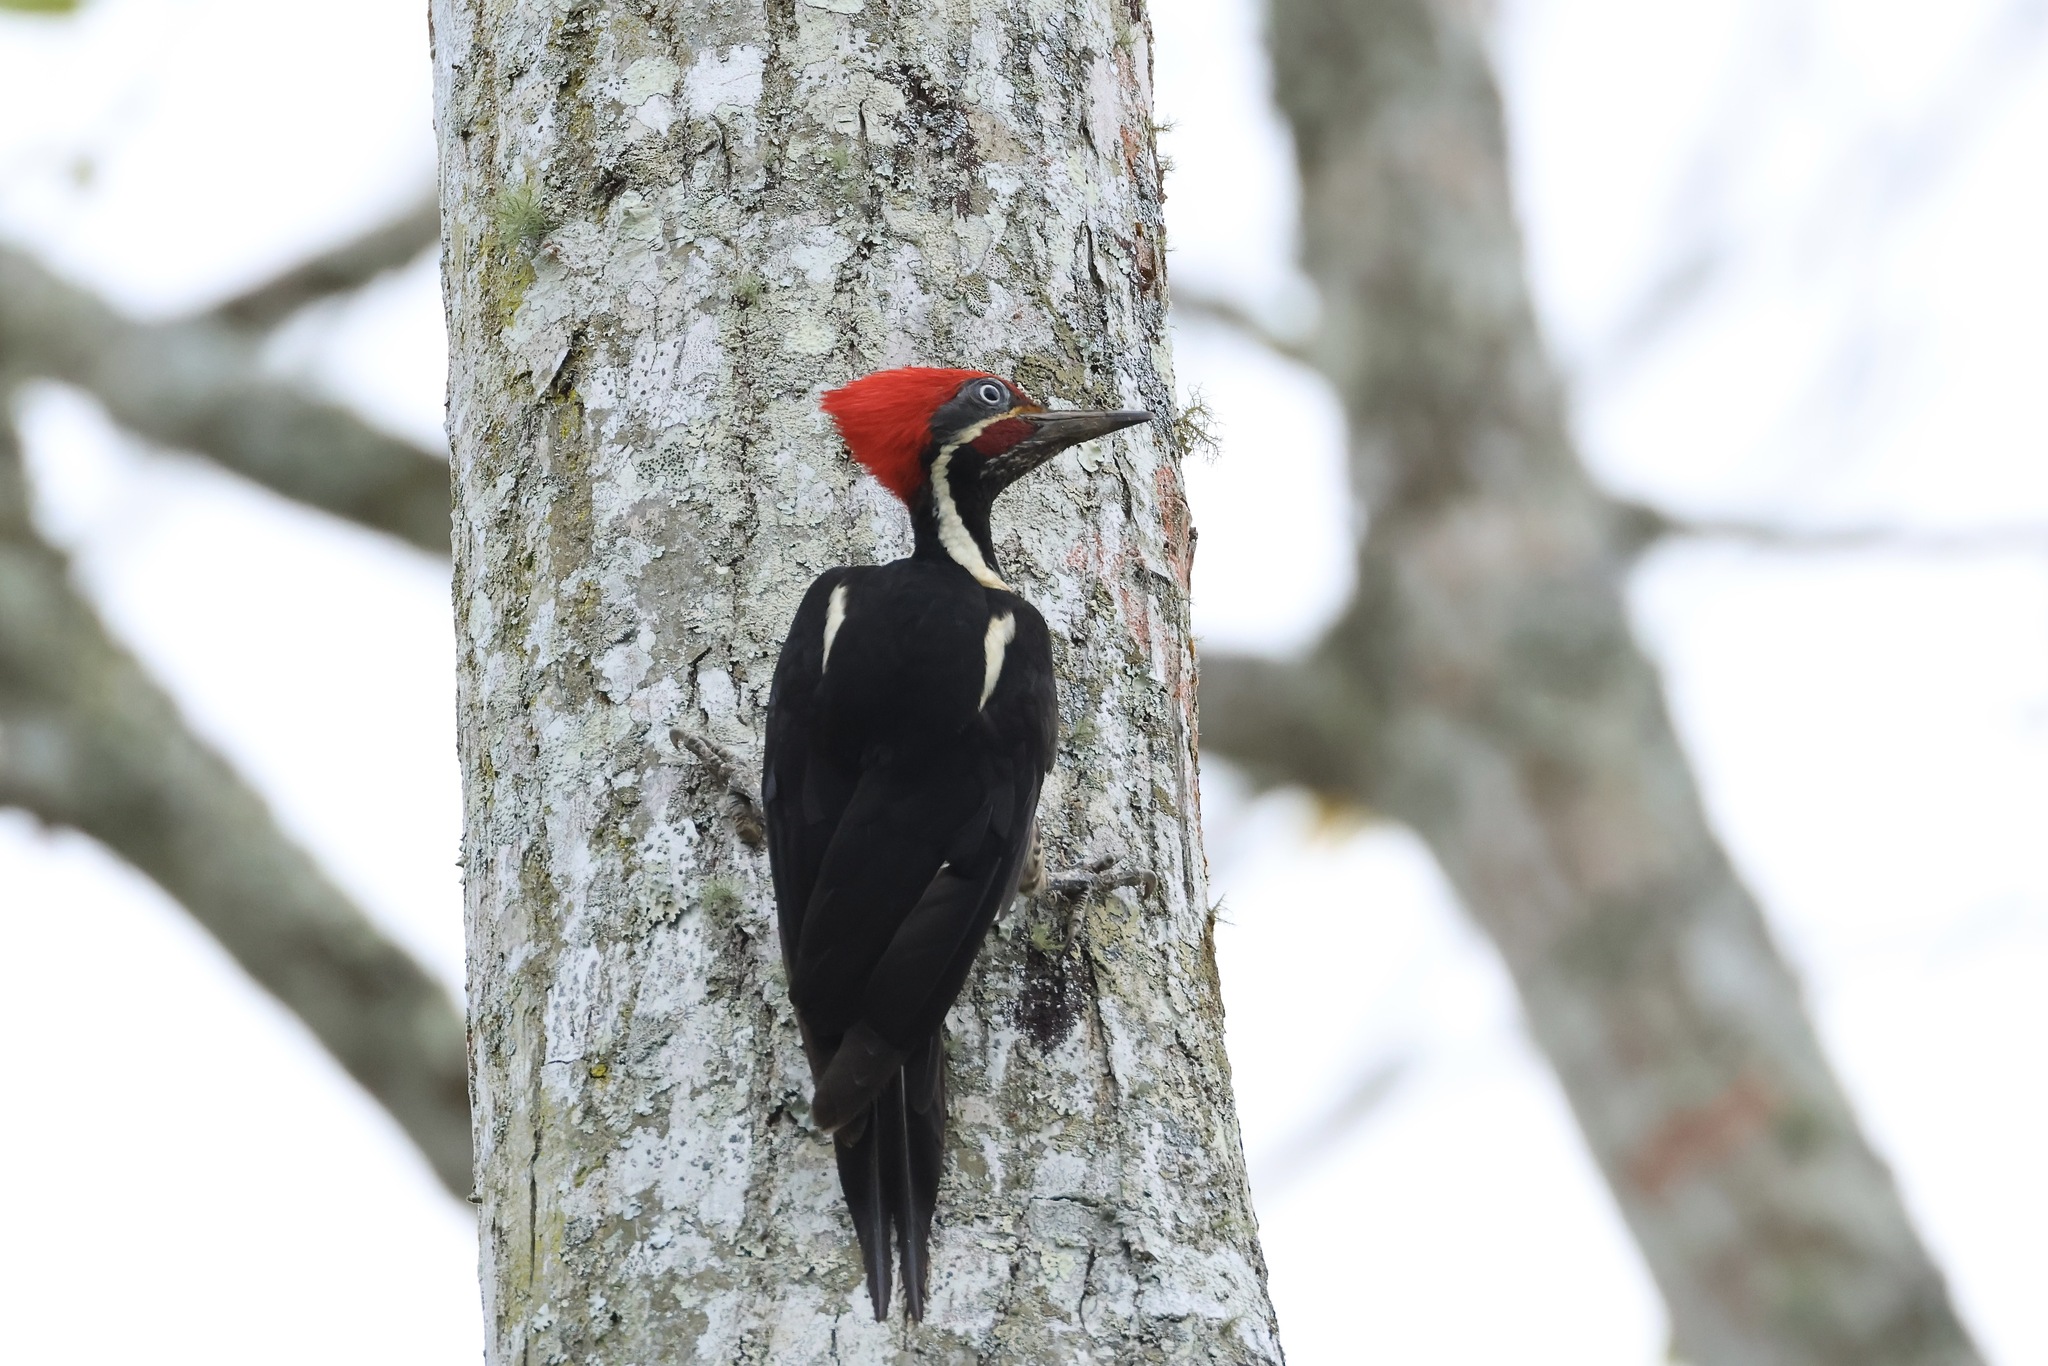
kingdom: Animalia
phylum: Chordata
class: Aves
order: Piciformes
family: Picidae
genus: Dryocopus
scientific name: Dryocopus lineatus
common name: Lineated woodpecker
